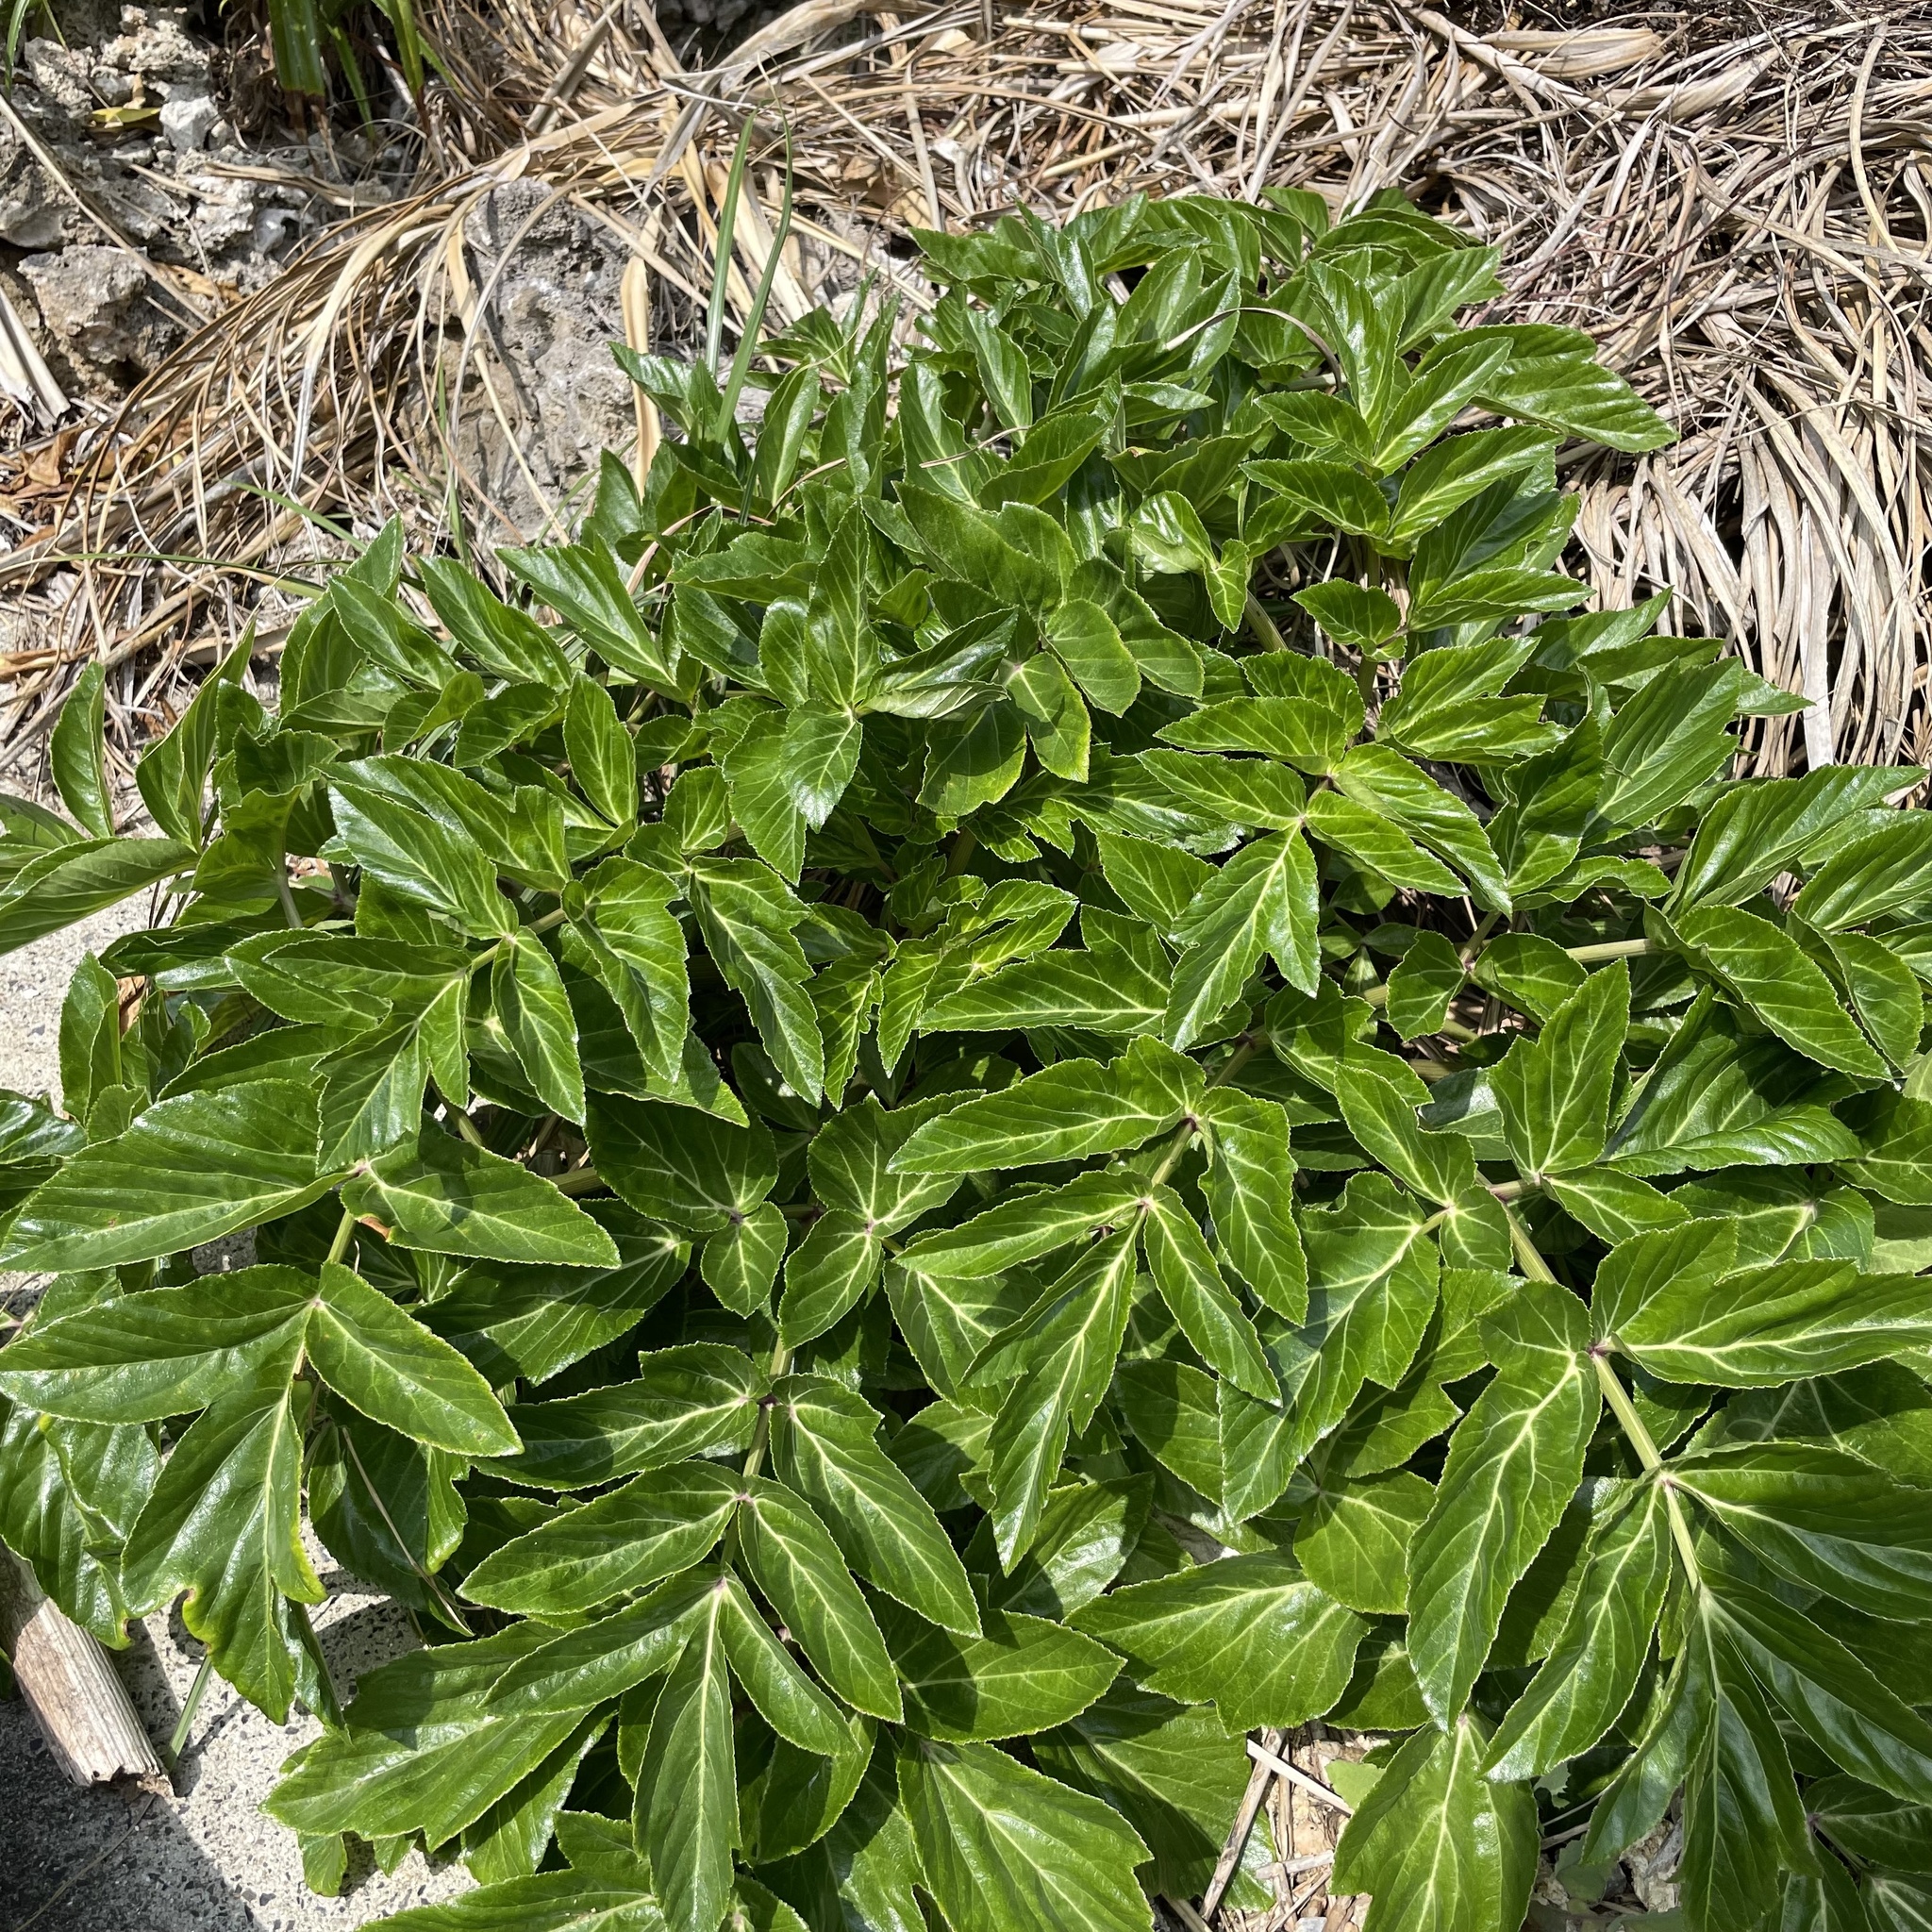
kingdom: Plantae
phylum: Tracheophyta
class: Magnoliopsida
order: Apiales
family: Apiaceae
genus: Angelica
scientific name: Angelica japonica
